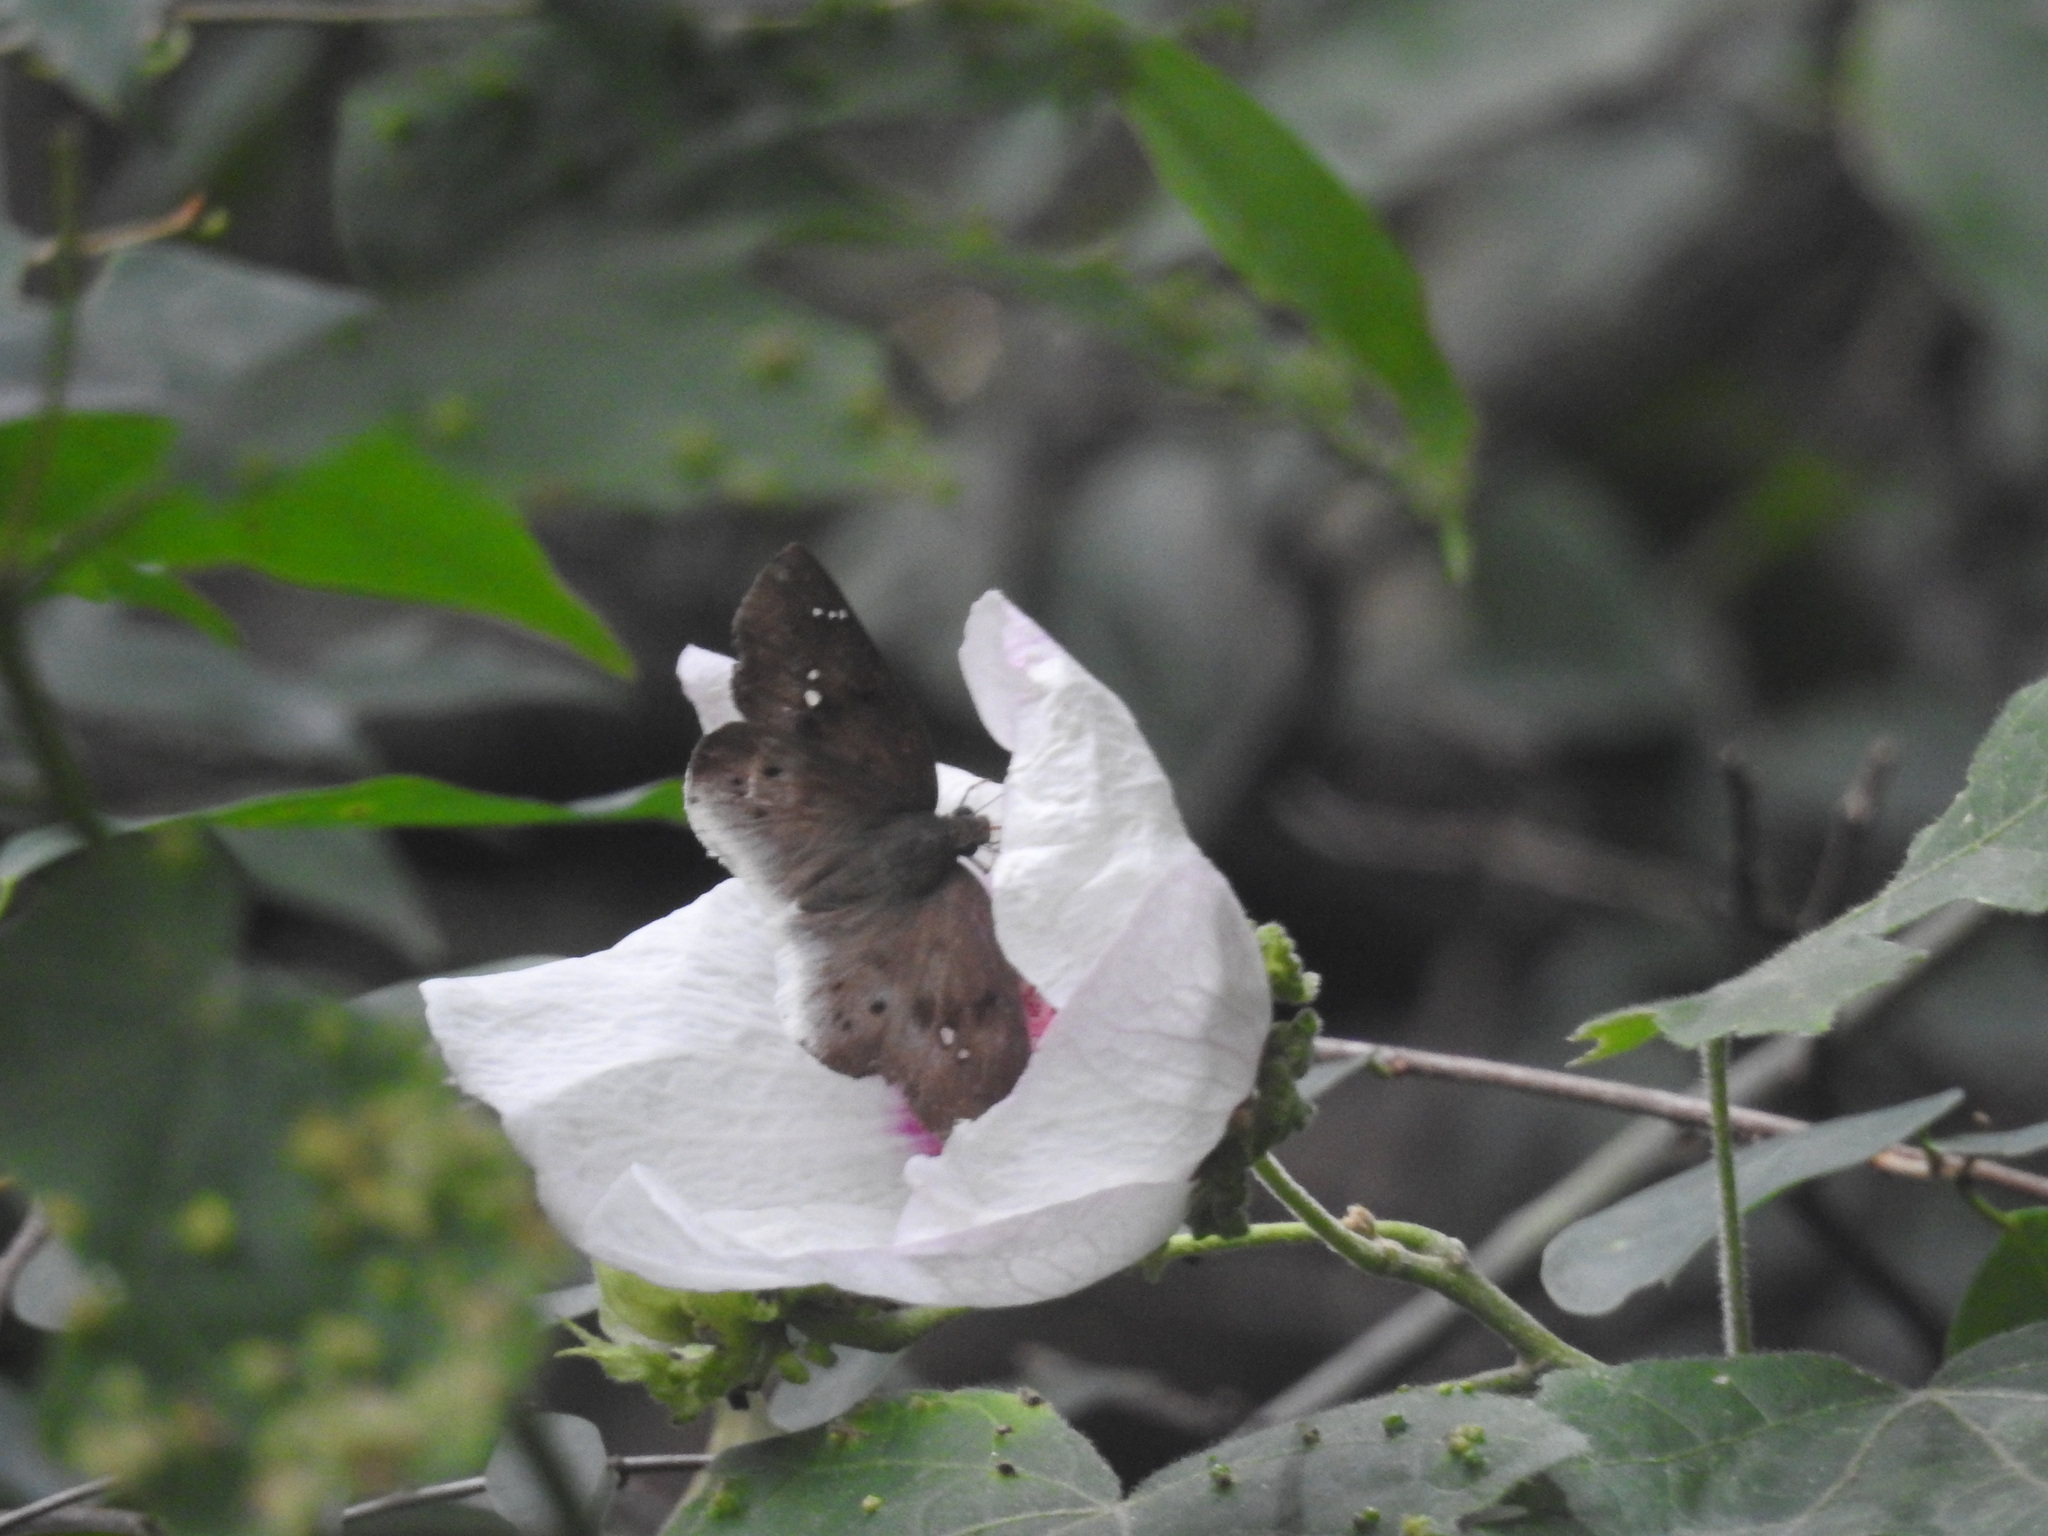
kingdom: Animalia
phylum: Arthropoda
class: Insecta
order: Lepidoptera
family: Hesperiidae
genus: Tagiades
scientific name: Tagiades japetus
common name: Pied flat
